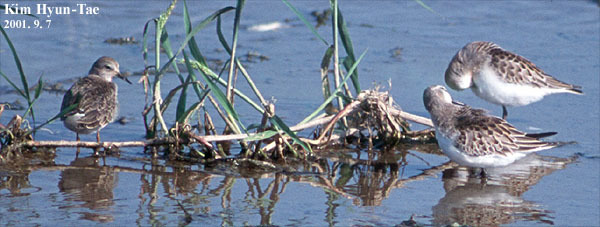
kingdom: Animalia
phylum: Chordata
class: Aves
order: Charadriiformes
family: Scolopacidae
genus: Calidris
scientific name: Calidris temminckii
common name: Temminck's stint
